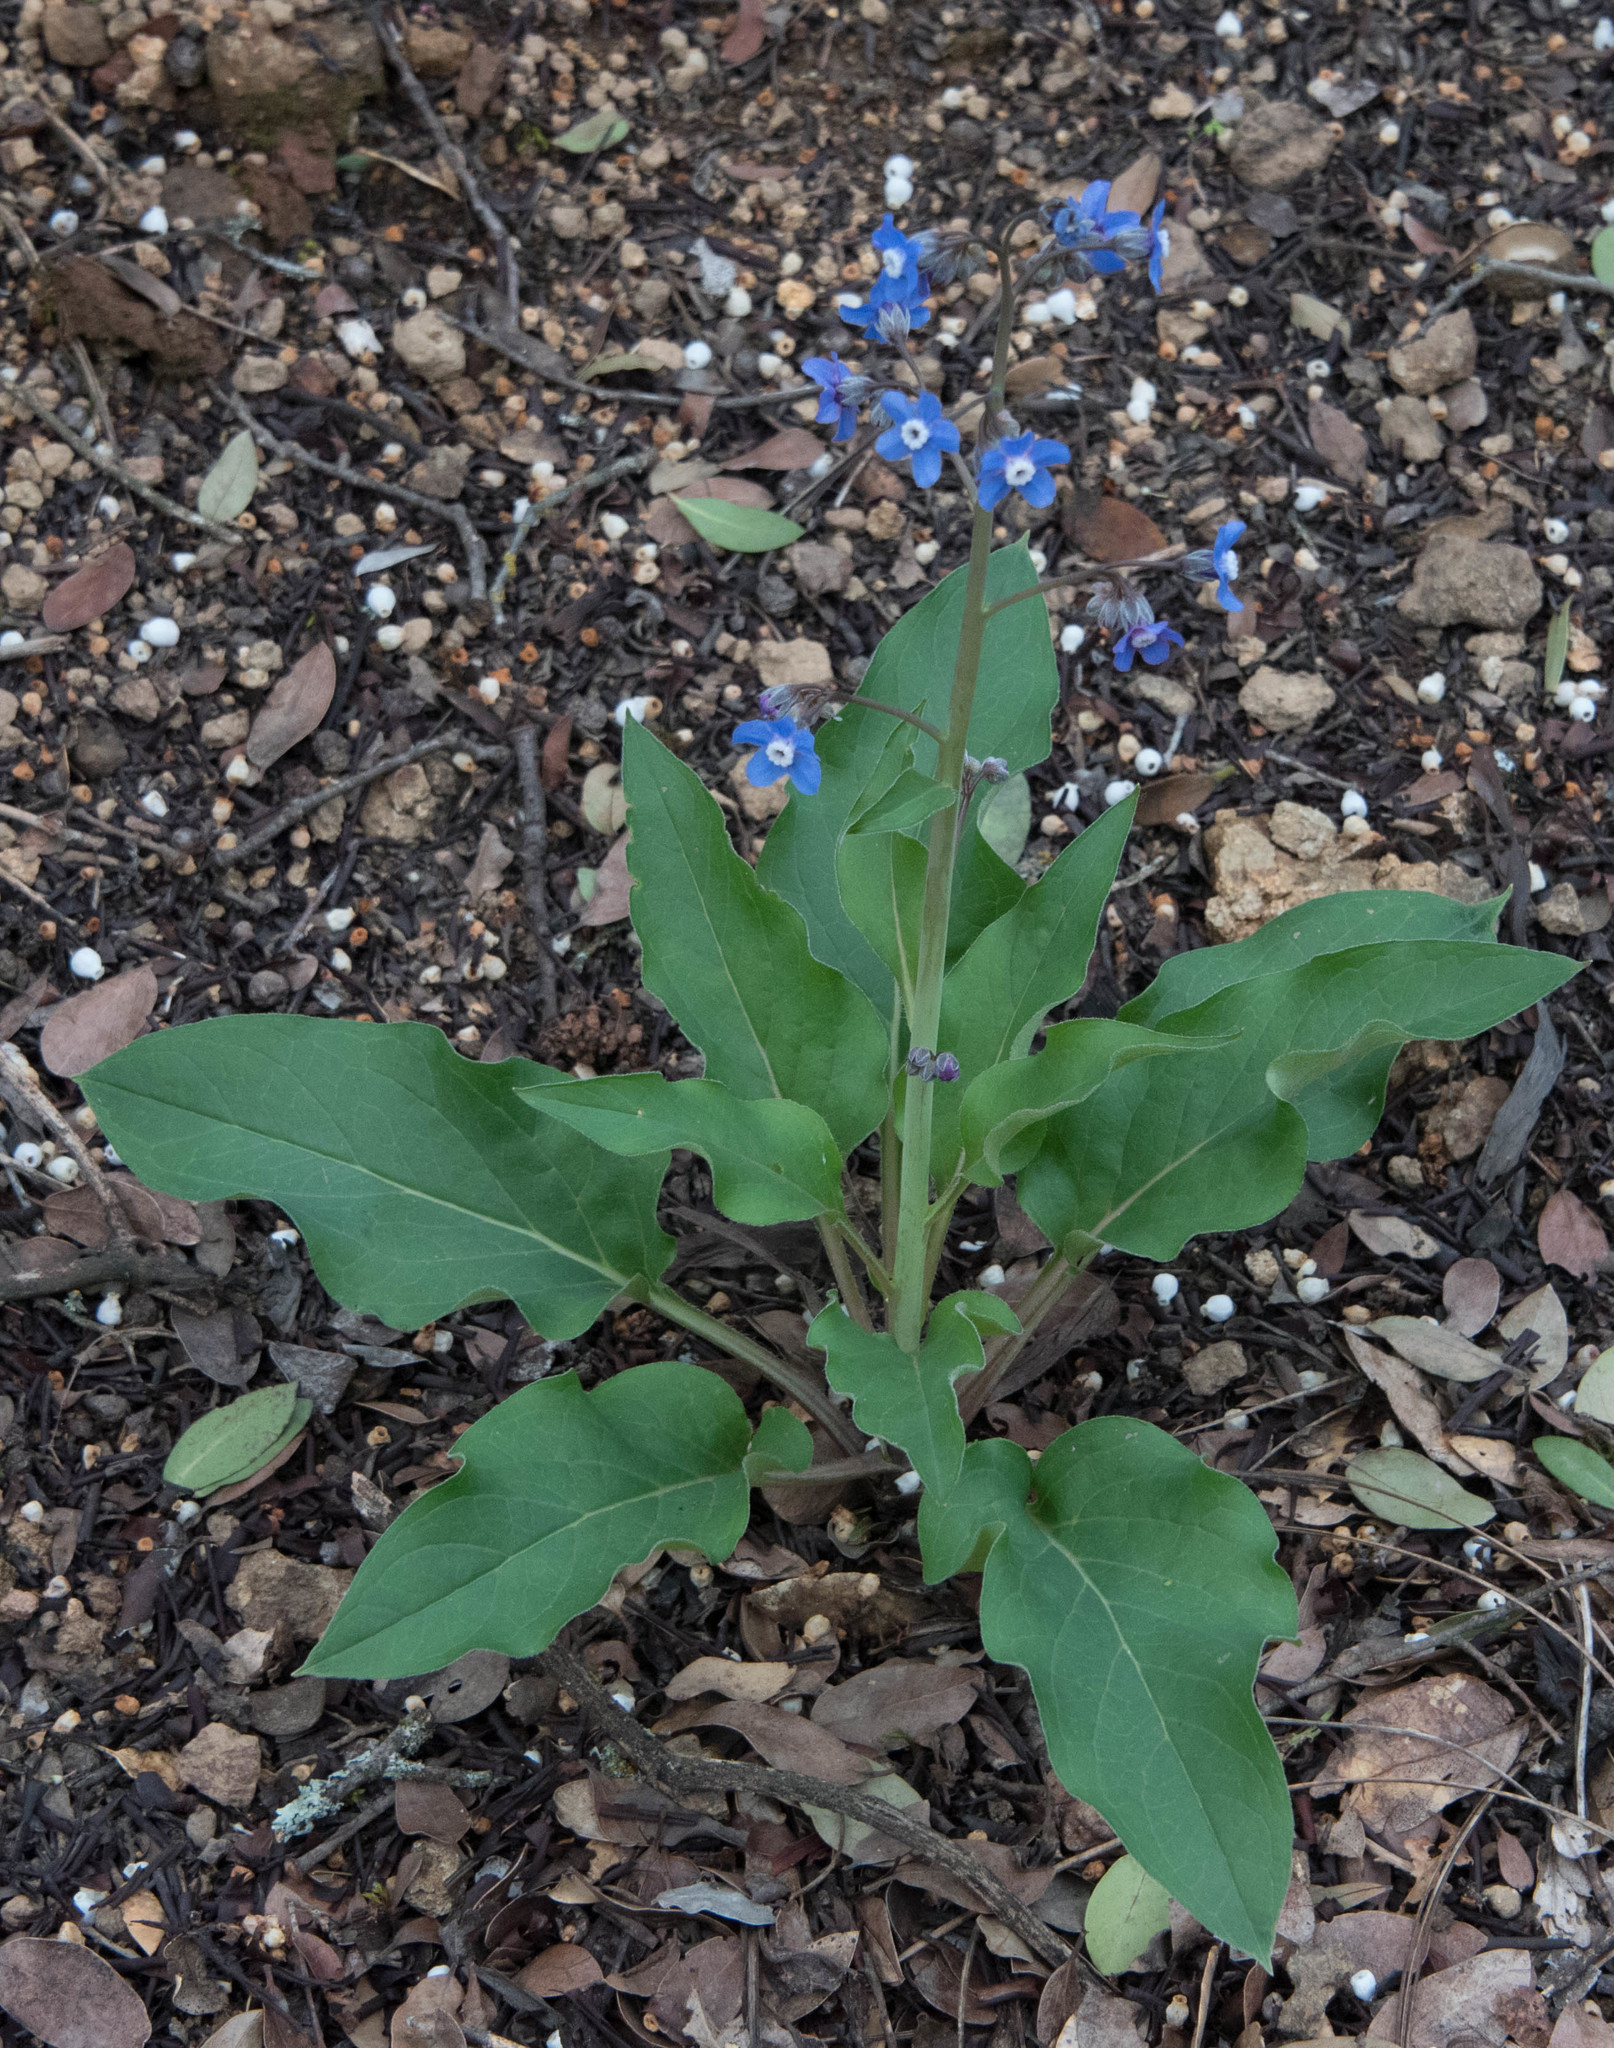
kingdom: Plantae
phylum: Tracheophyta
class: Magnoliopsida
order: Boraginales
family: Boraginaceae
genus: Adelinia
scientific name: Adelinia grande
